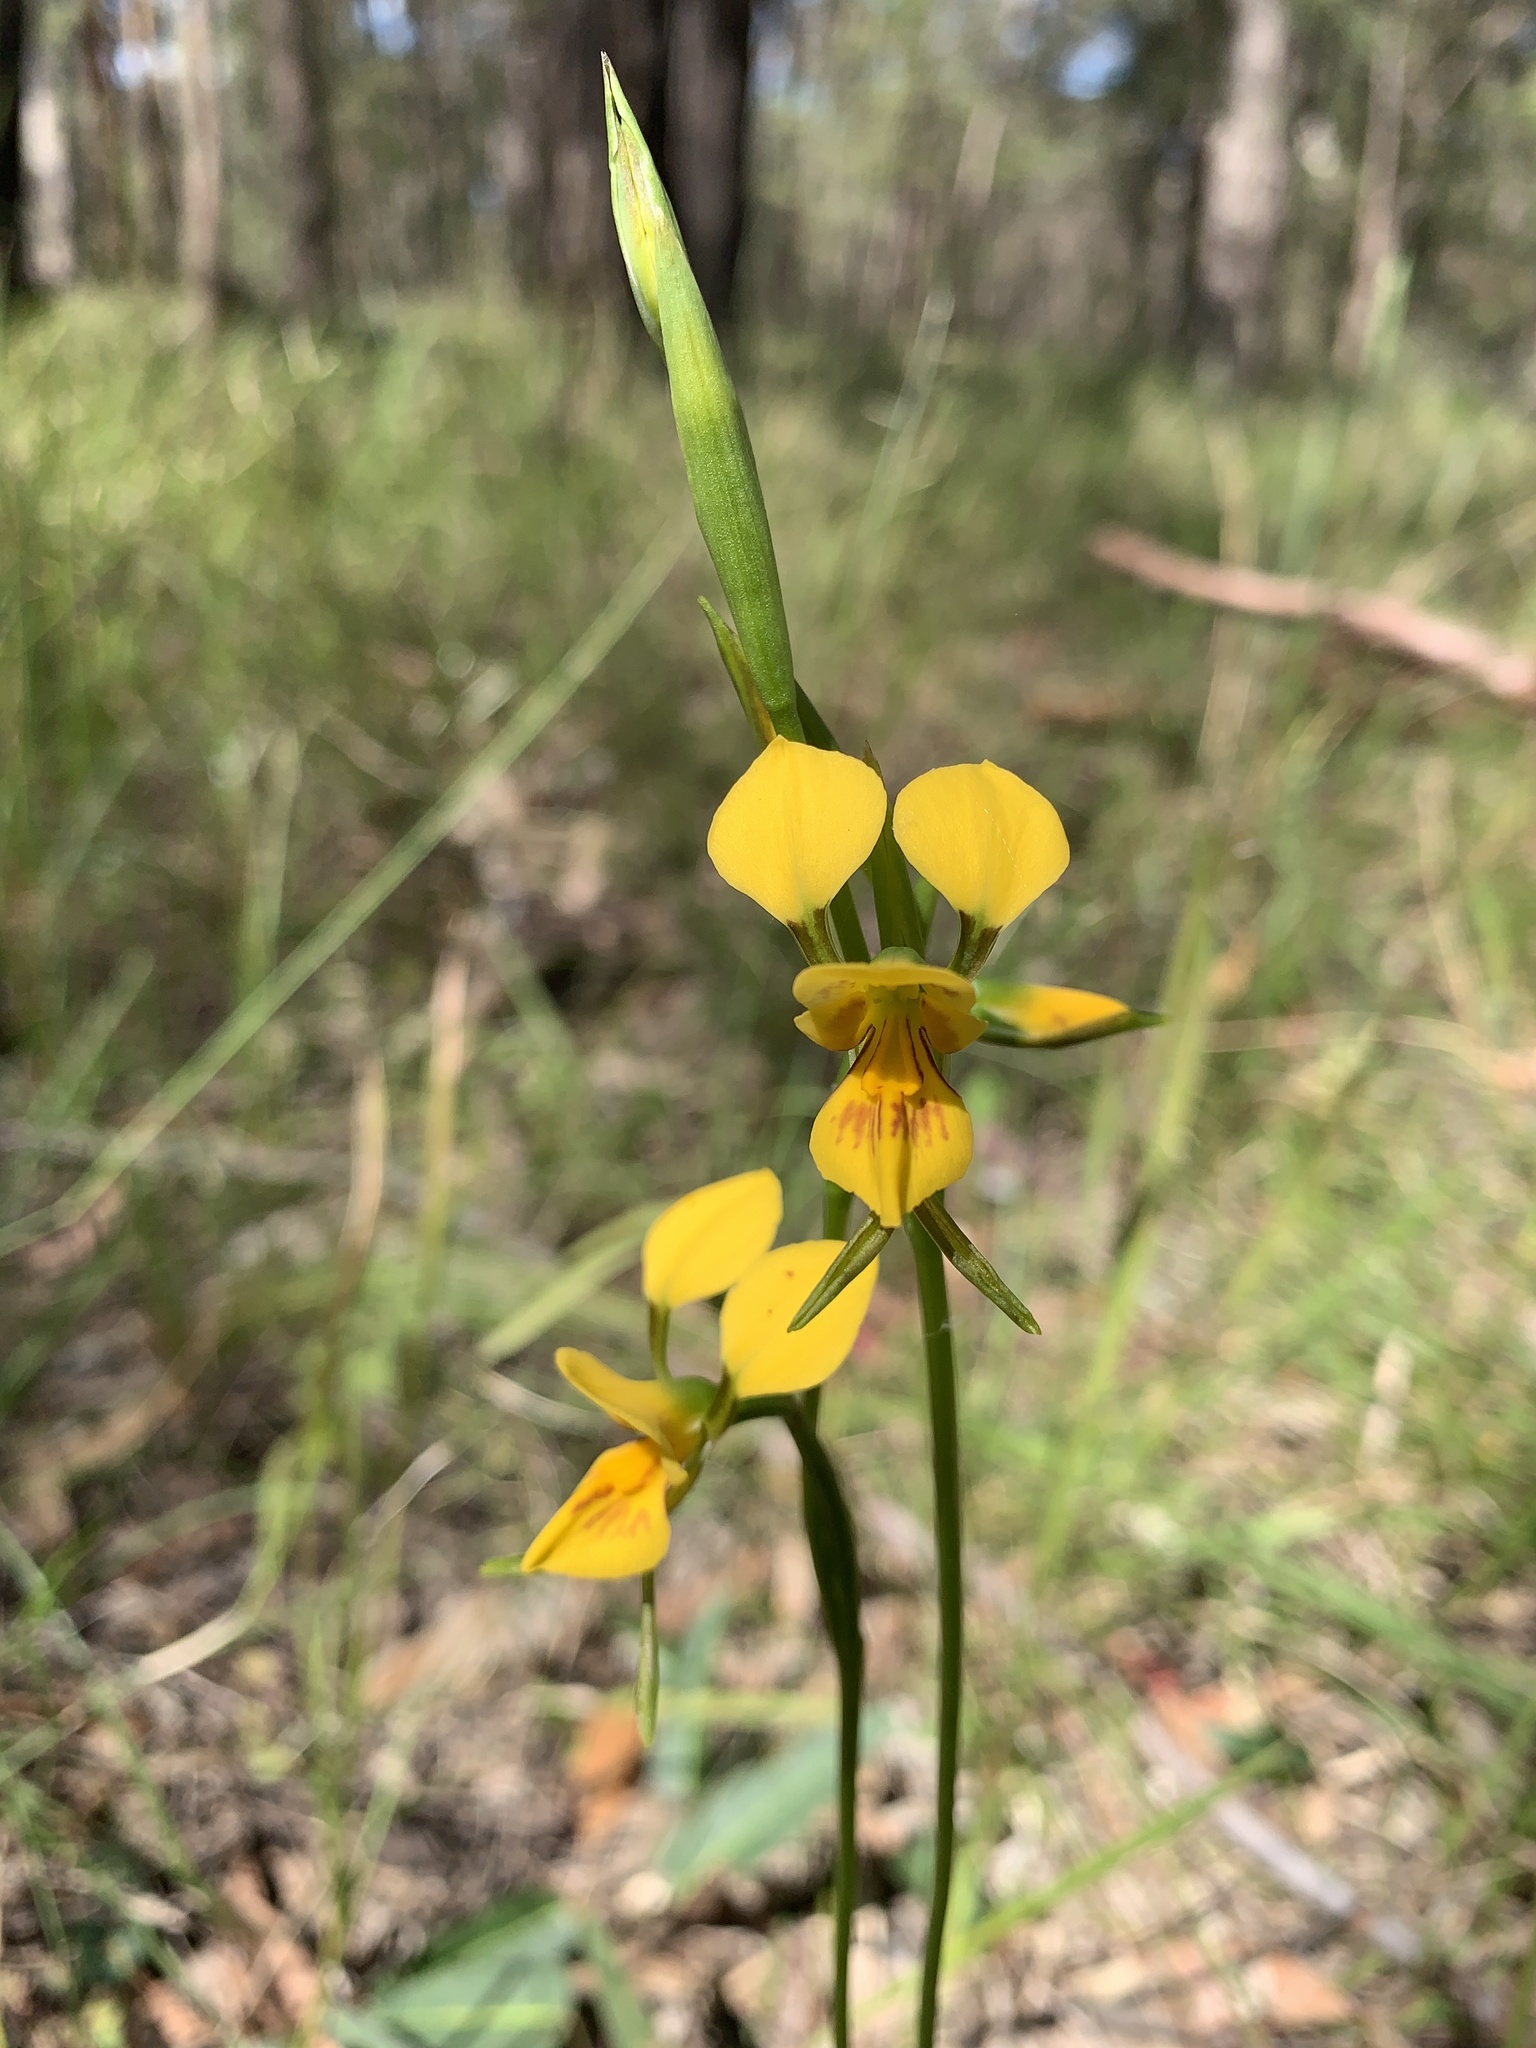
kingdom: Plantae
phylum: Tracheophyta
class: Liliopsida
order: Asparagales
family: Orchidaceae
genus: Diuris
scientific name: Diuris aurea
